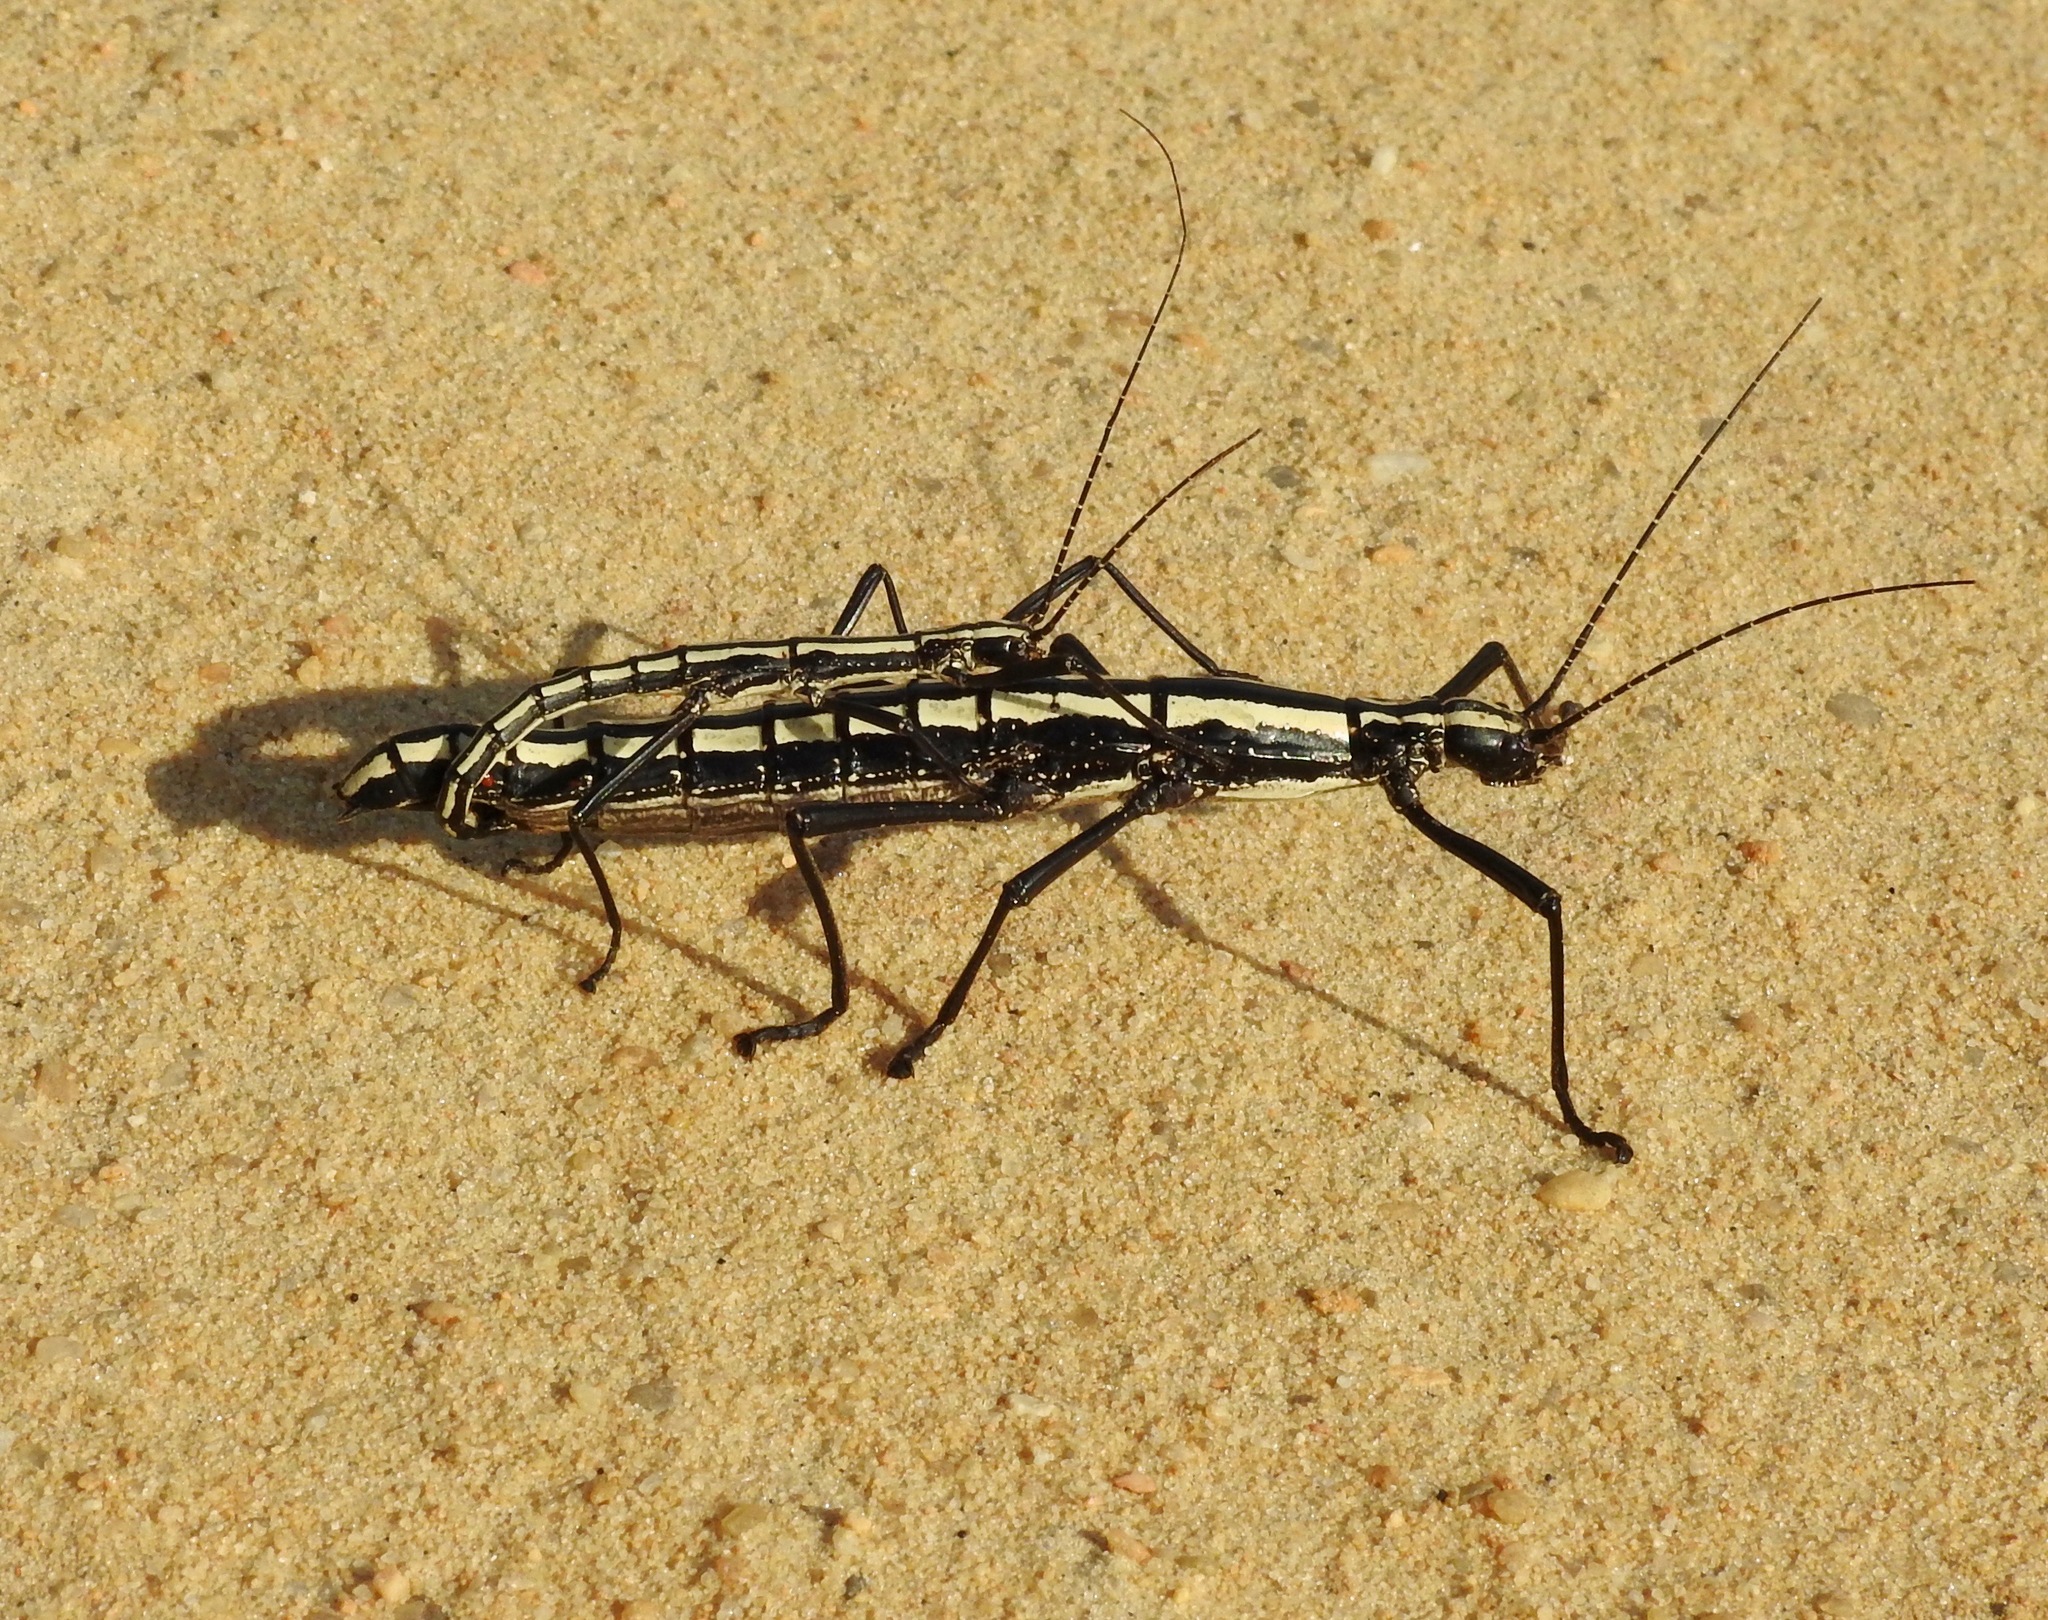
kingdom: Animalia
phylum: Arthropoda
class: Insecta
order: Phasmida
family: Pseudophasmatidae
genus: Anisomorpha
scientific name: Anisomorpha buprestoides
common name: Florida stick insect
